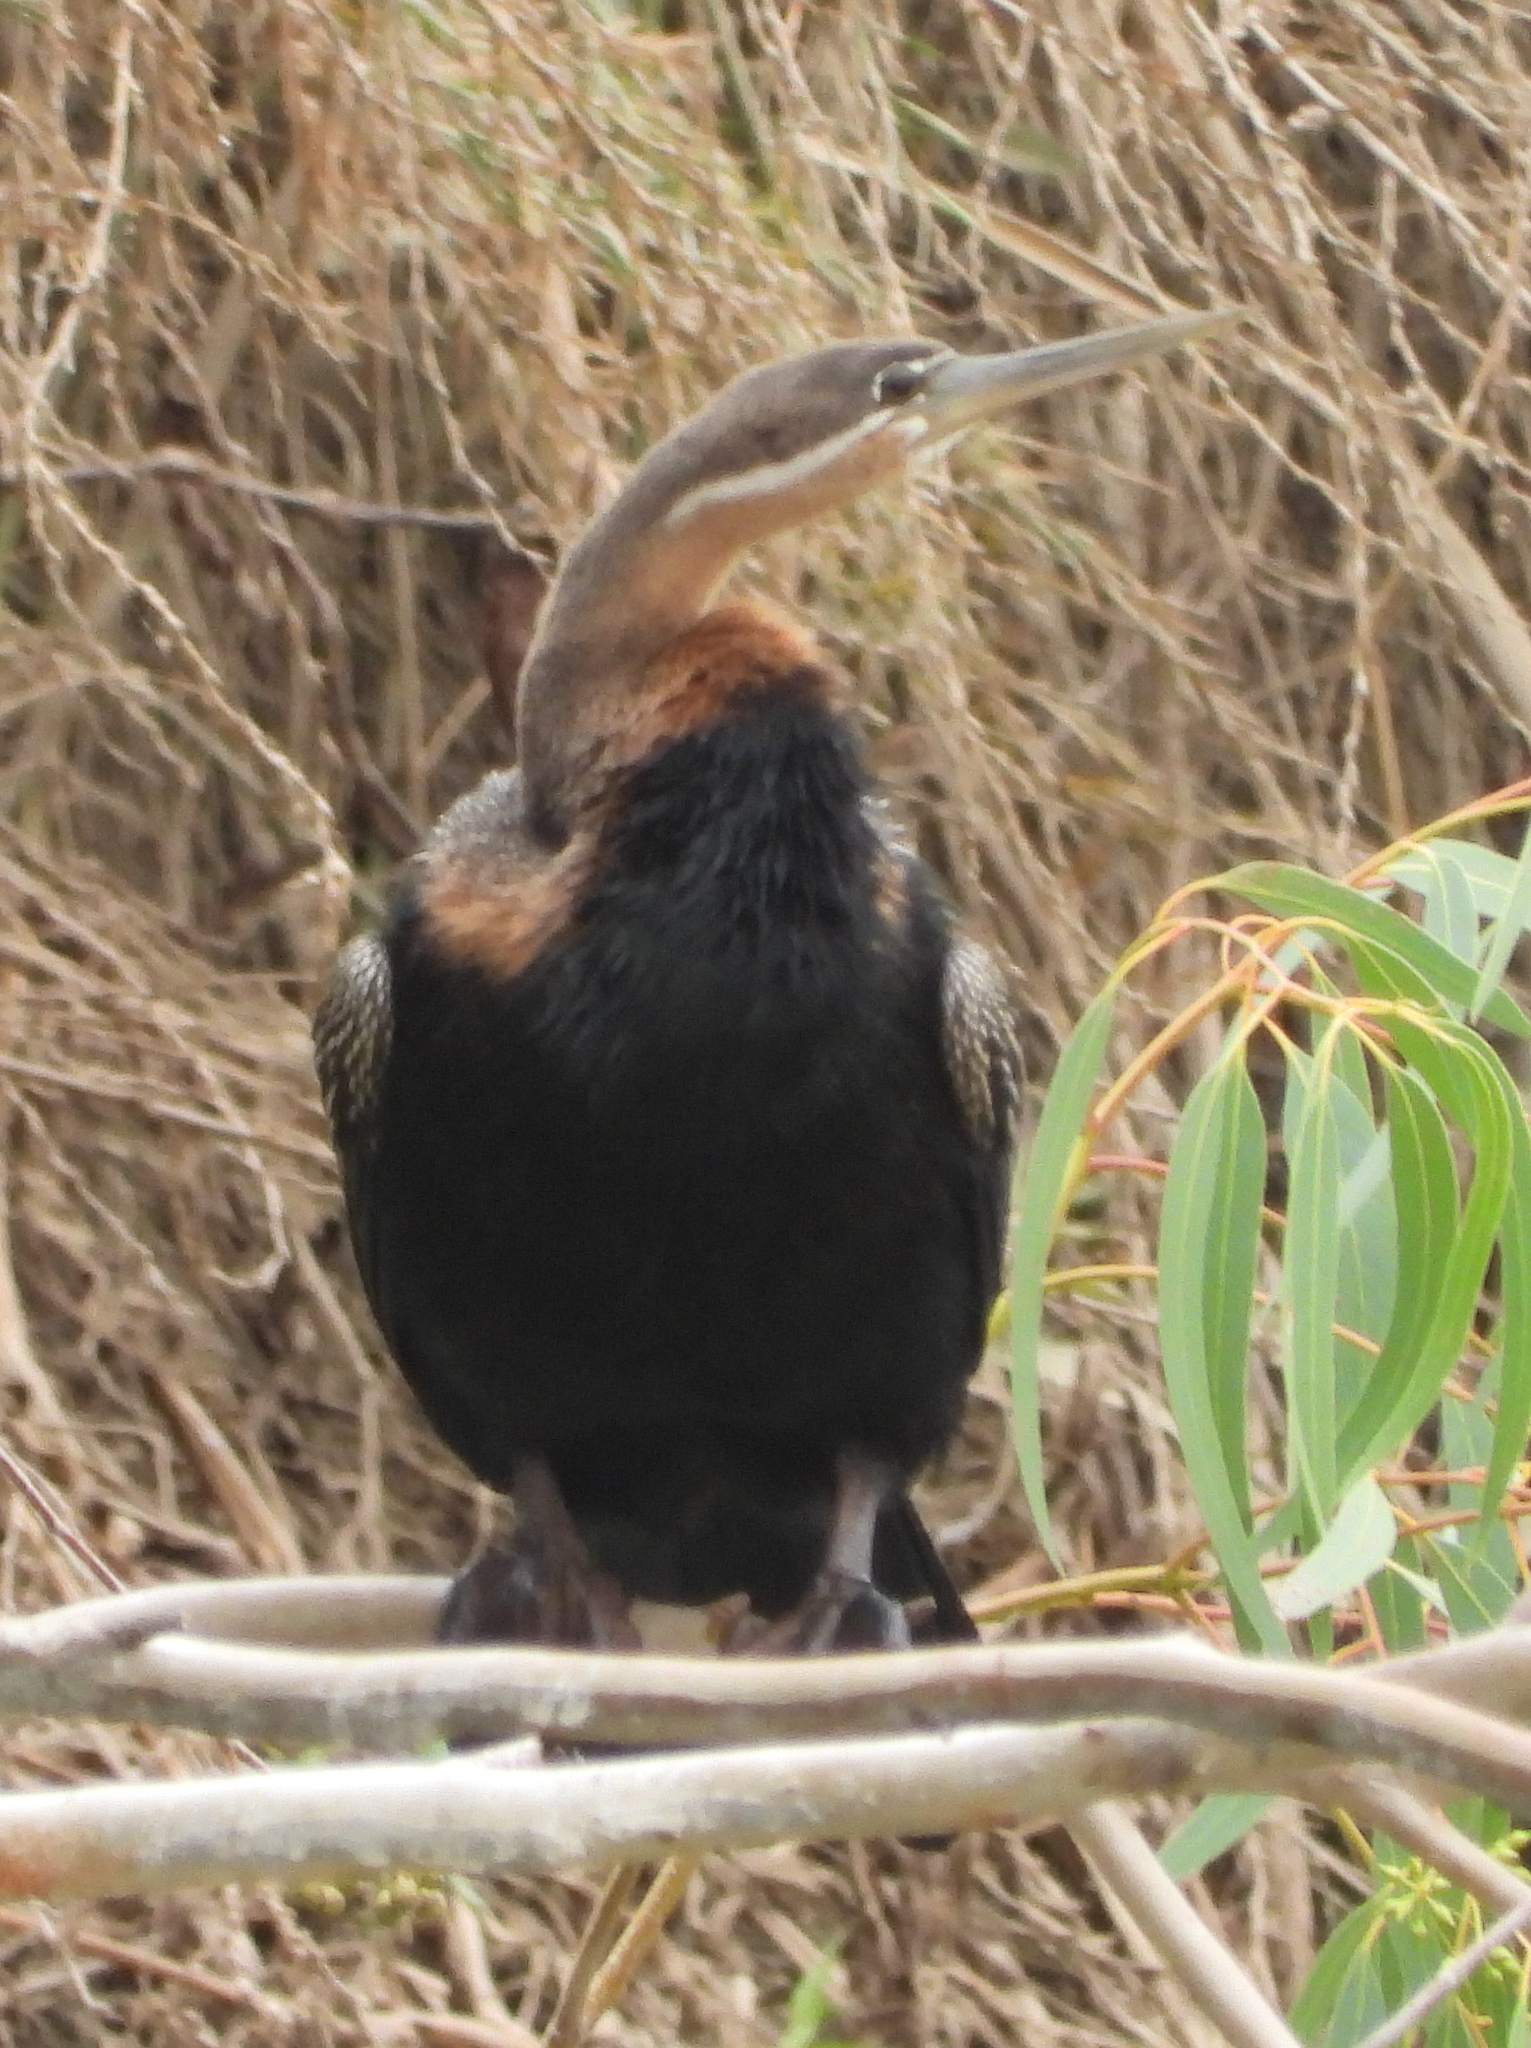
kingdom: Animalia
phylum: Chordata
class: Aves
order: Suliformes
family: Anhingidae
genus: Anhinga
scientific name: Anhinga rufa
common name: African darter
